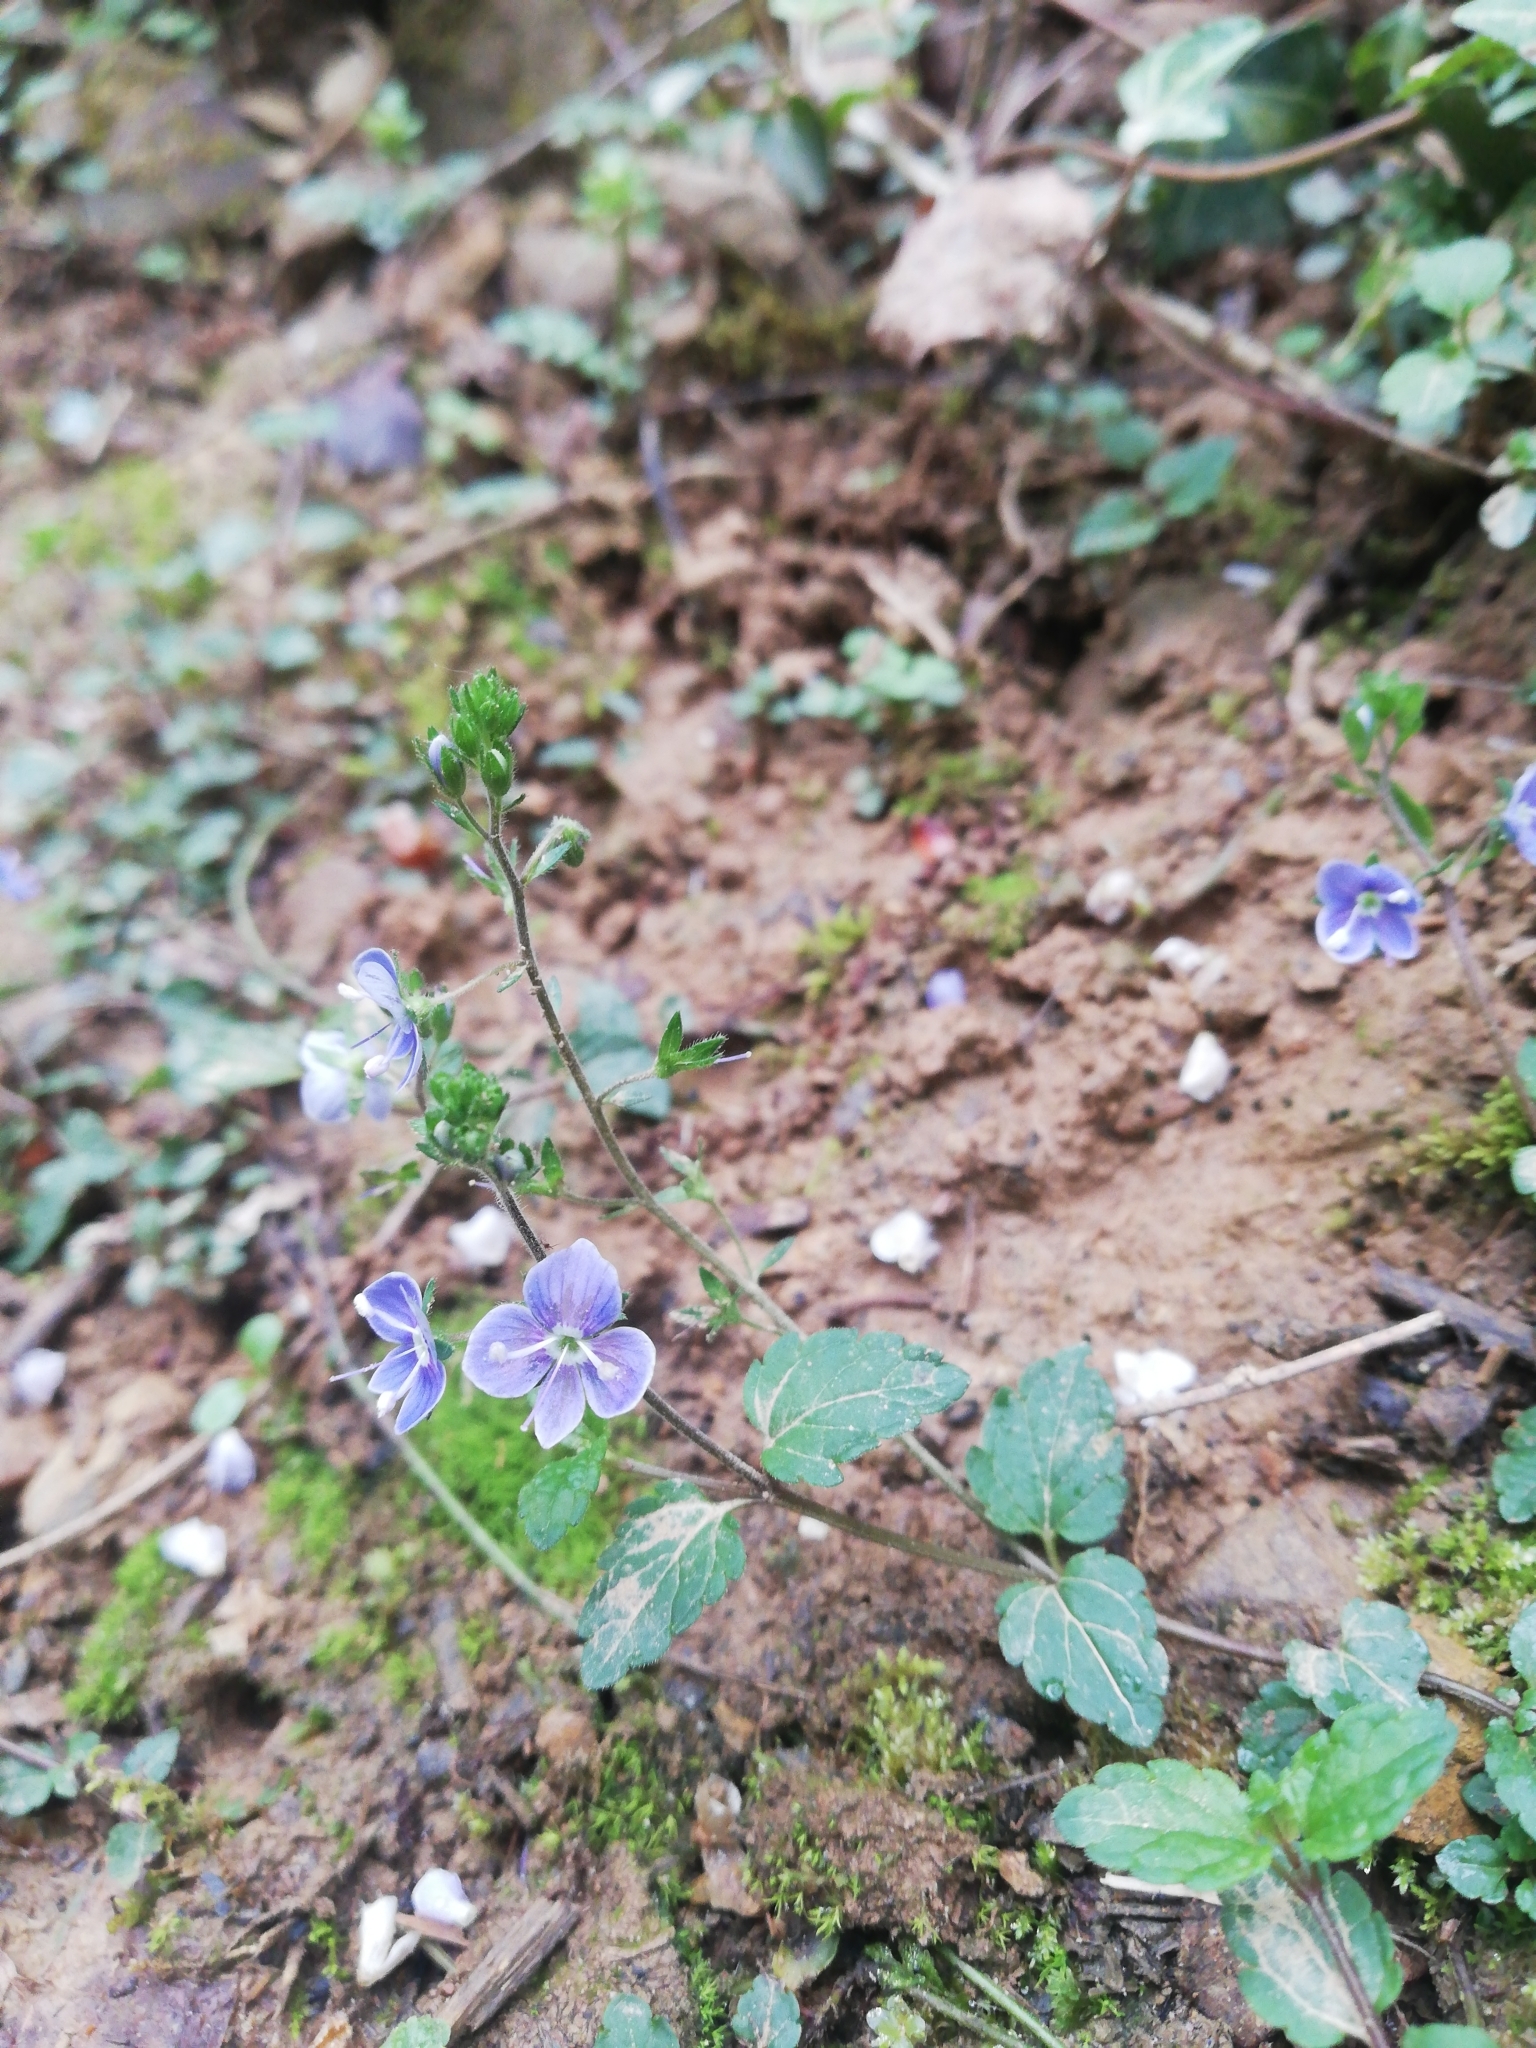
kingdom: Plantae
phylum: Tracheophyta
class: Magnoliopsida
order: Lamiales
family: Plantaginaceae
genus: Veronica
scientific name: Veronica chamaedrys
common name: Germander speedwell
